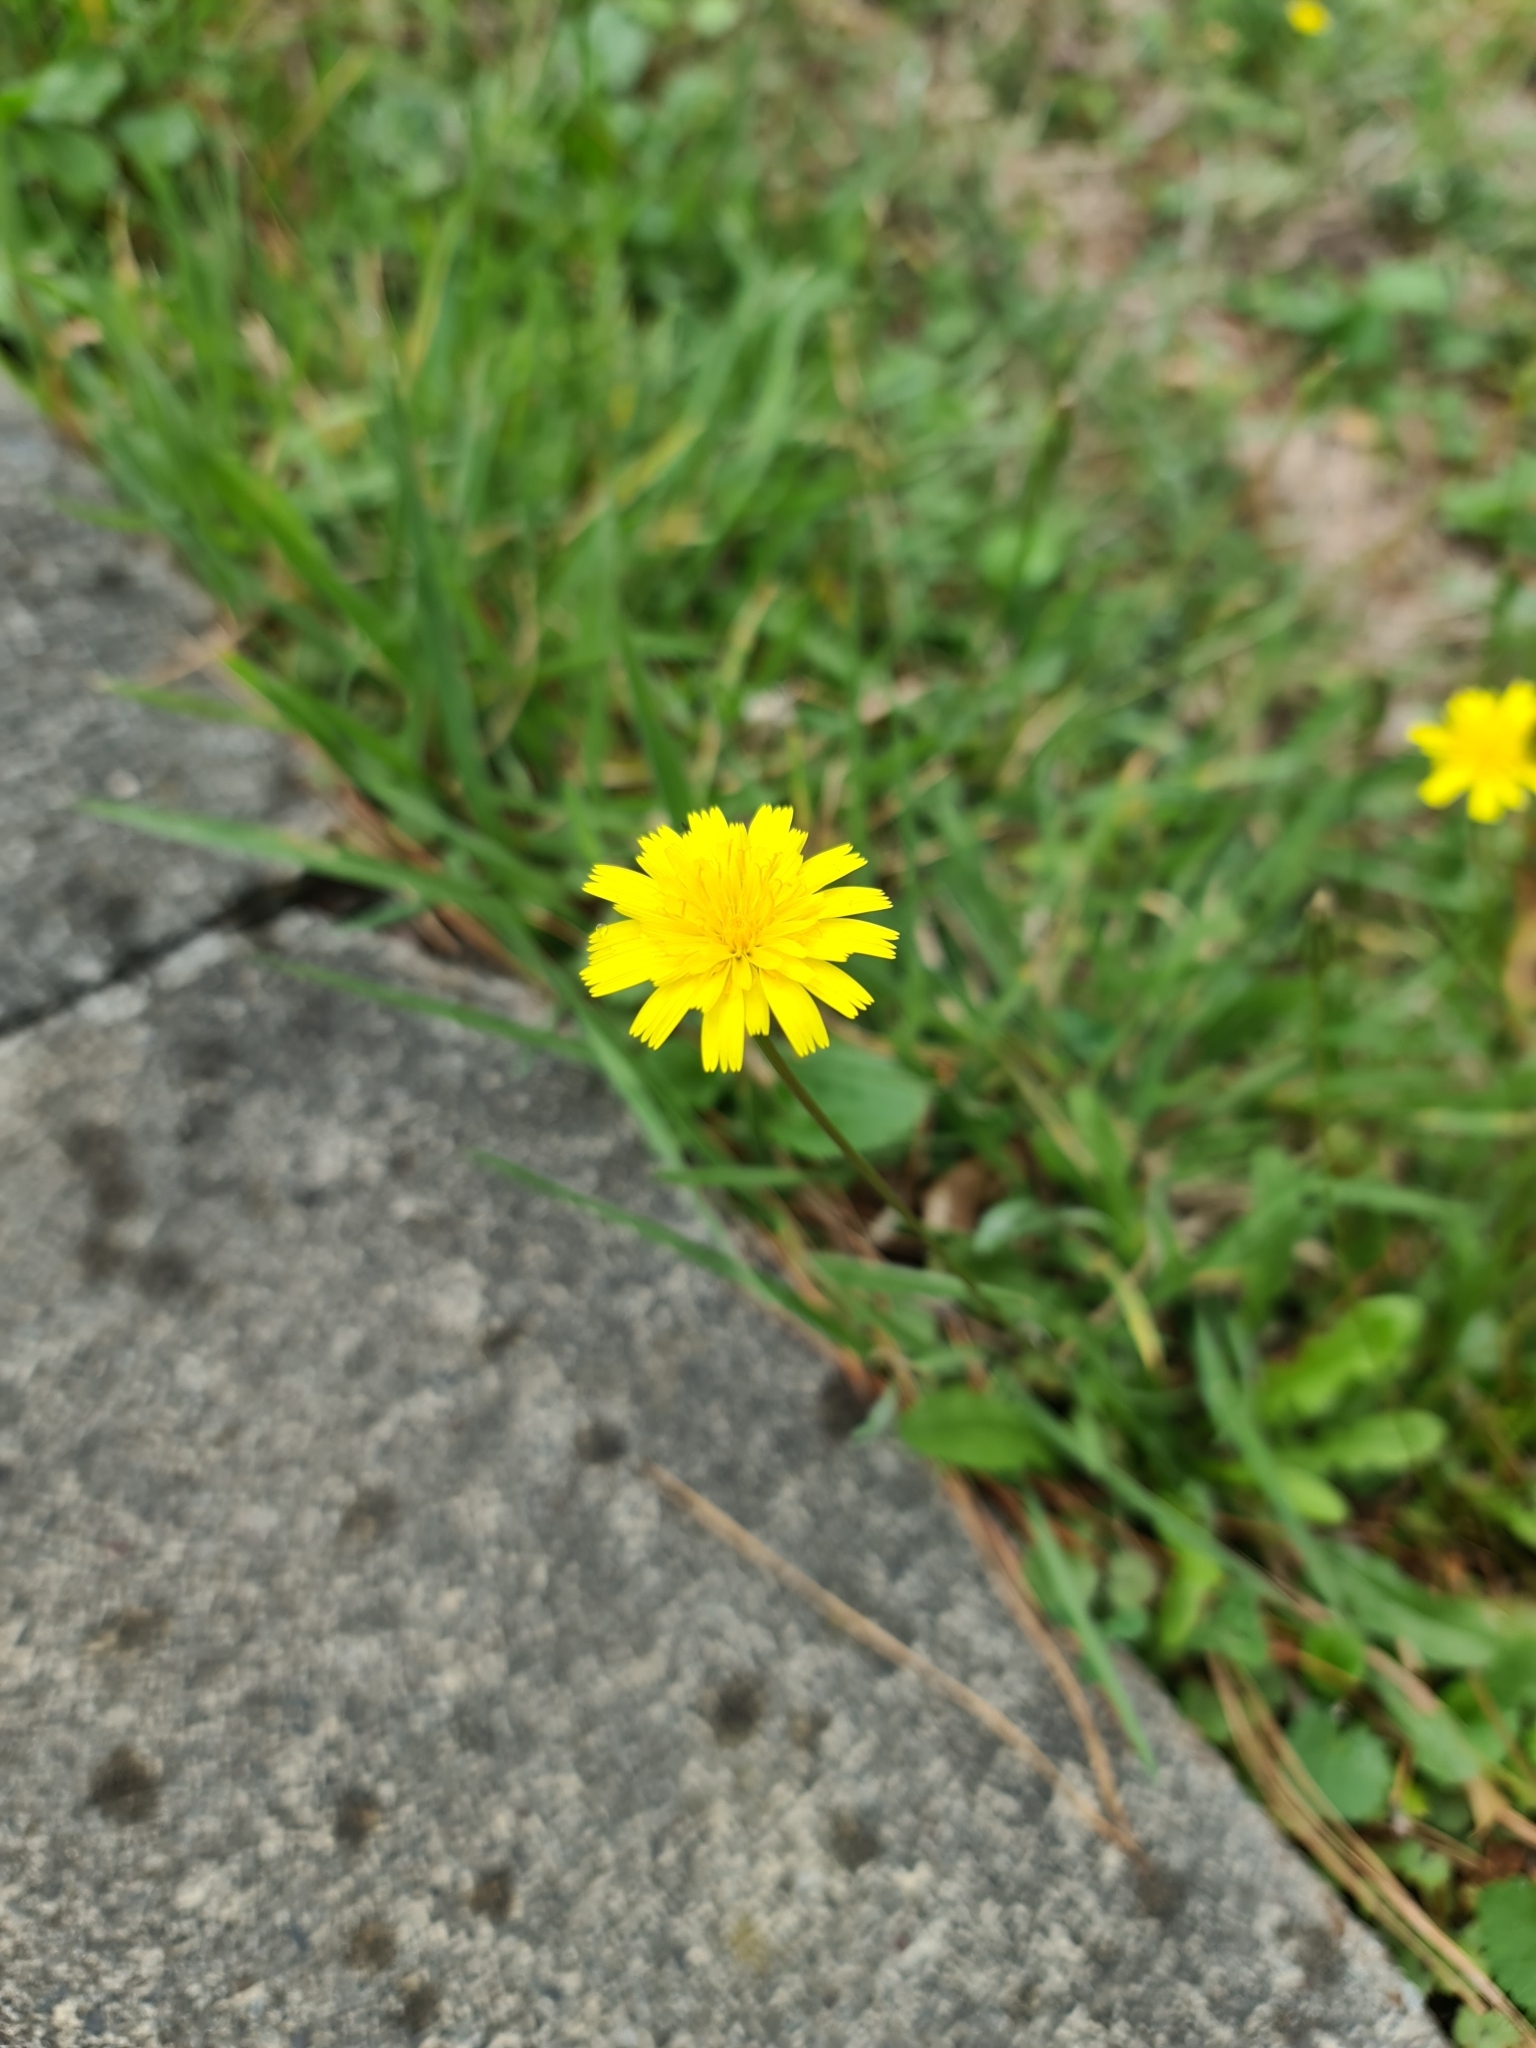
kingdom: Plantae
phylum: Tracheophyta
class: Magnoliopsida
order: Asterales
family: Asteraceae
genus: Hypochaeris
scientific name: Hypochaeris radicata
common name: Flatweed
